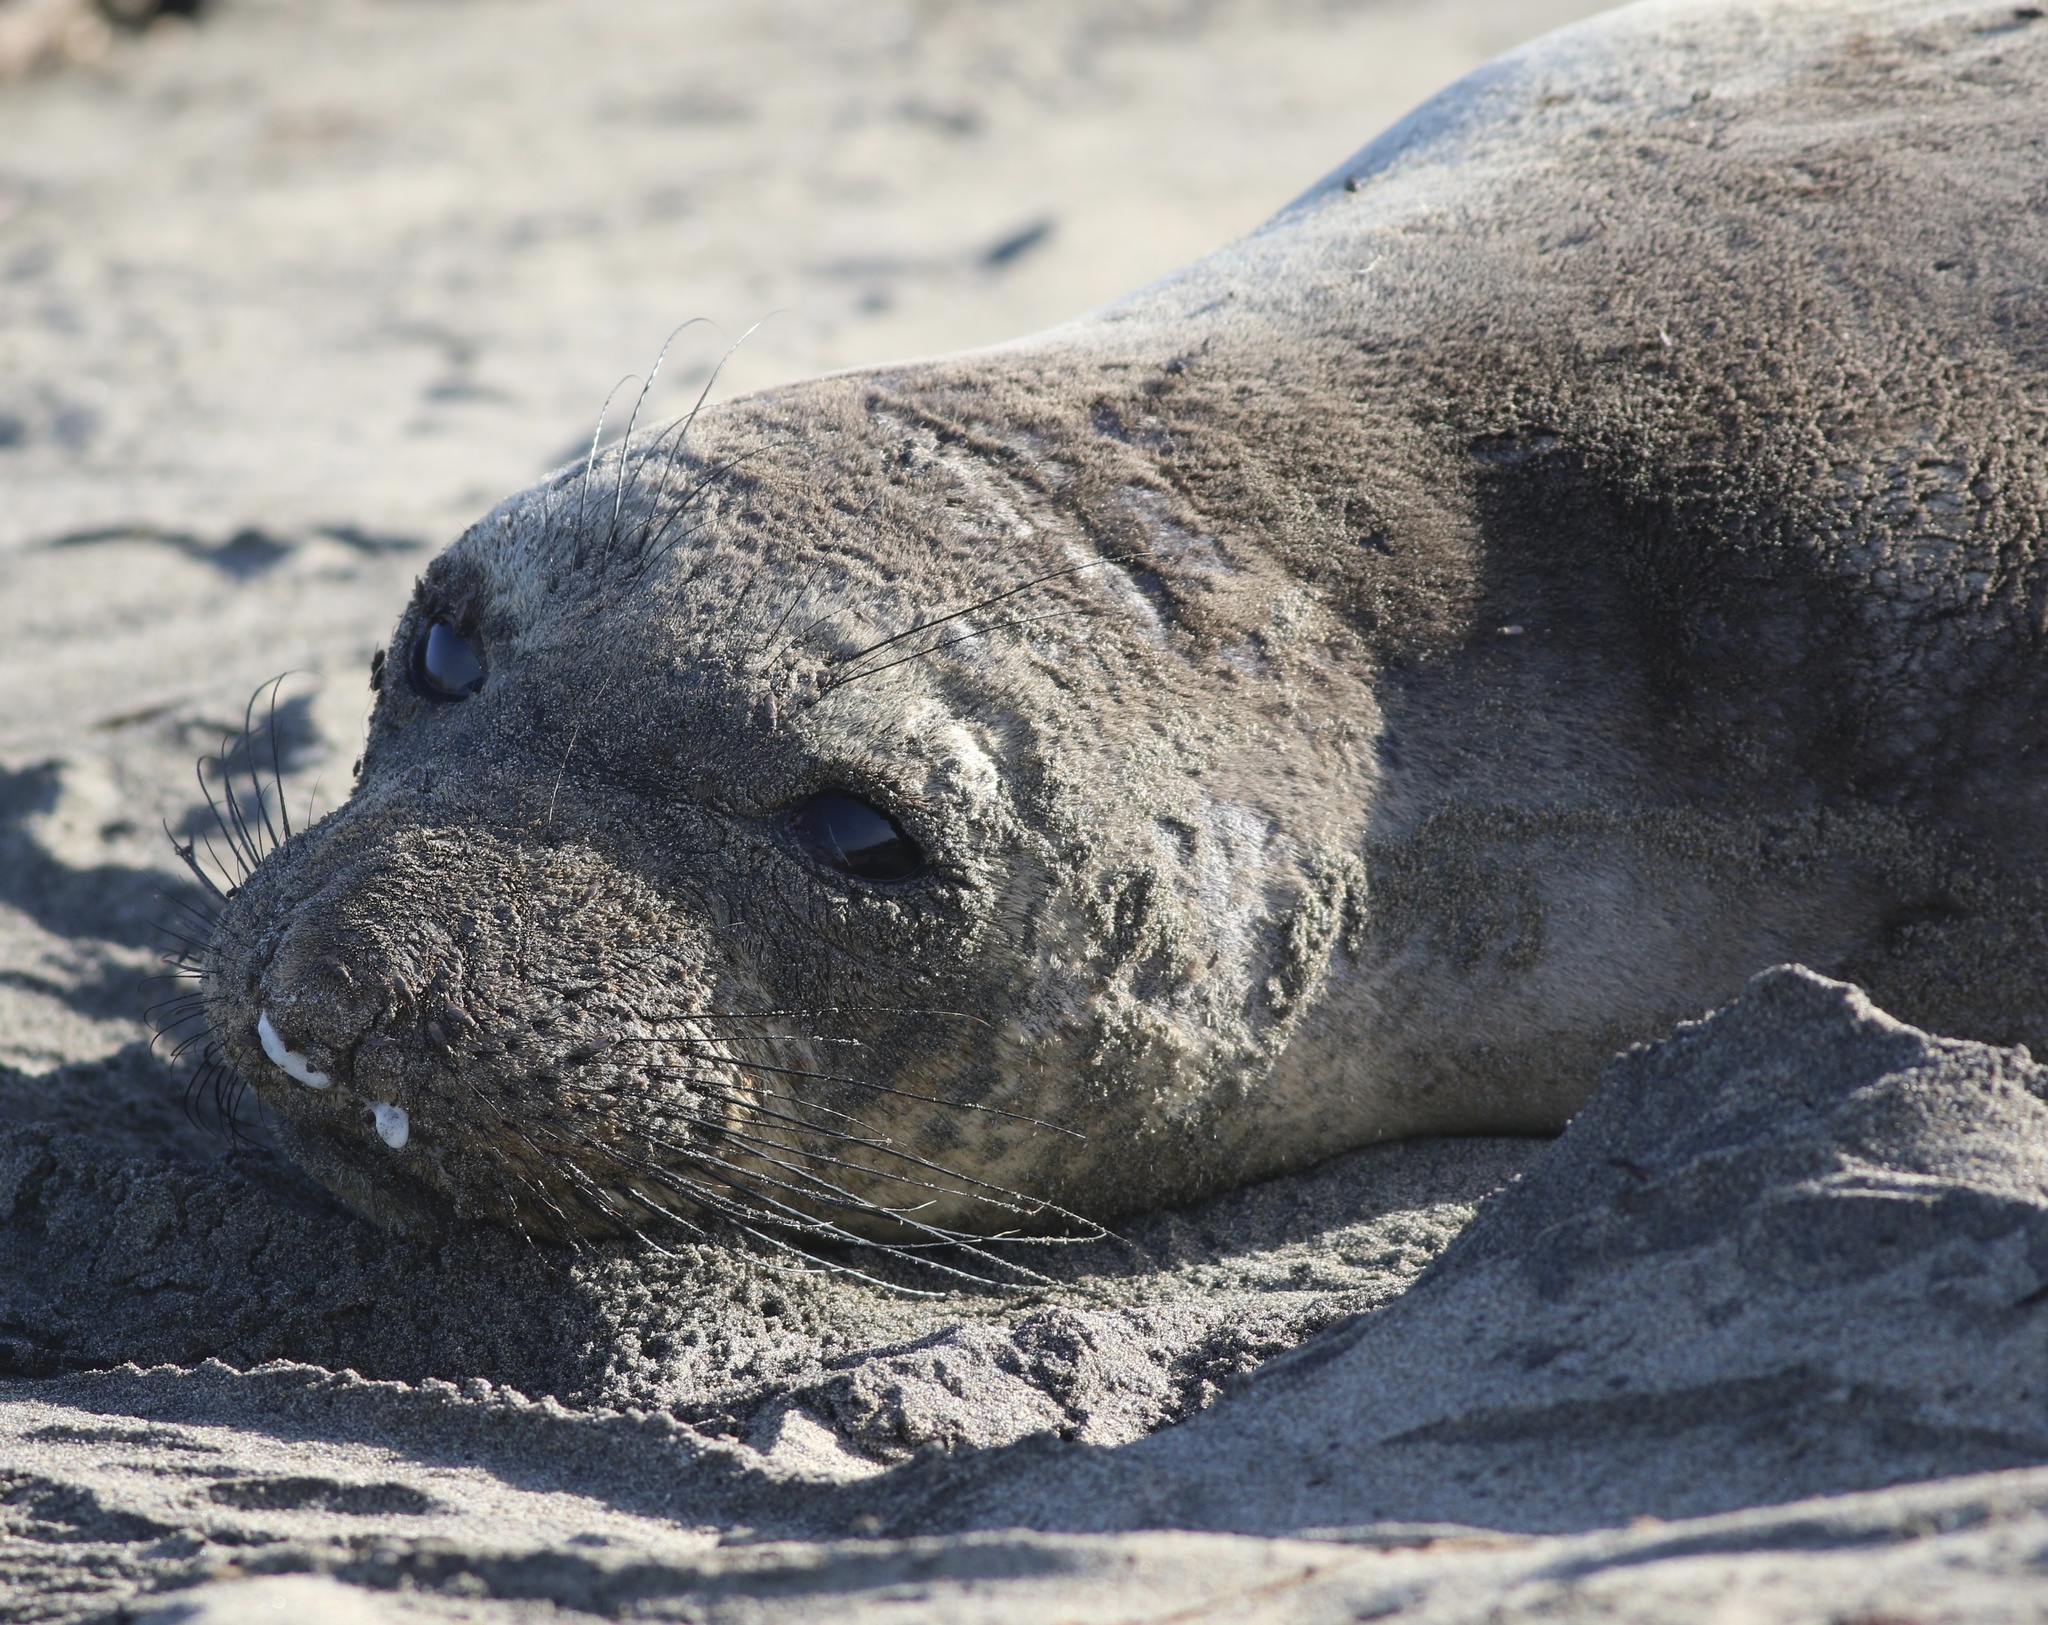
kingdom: Animalia
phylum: Chordata
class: Mammalia
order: Carnivora
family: Phocidae
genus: Mirounga
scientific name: Mirounga angustirostris
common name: Northern elephant seal
